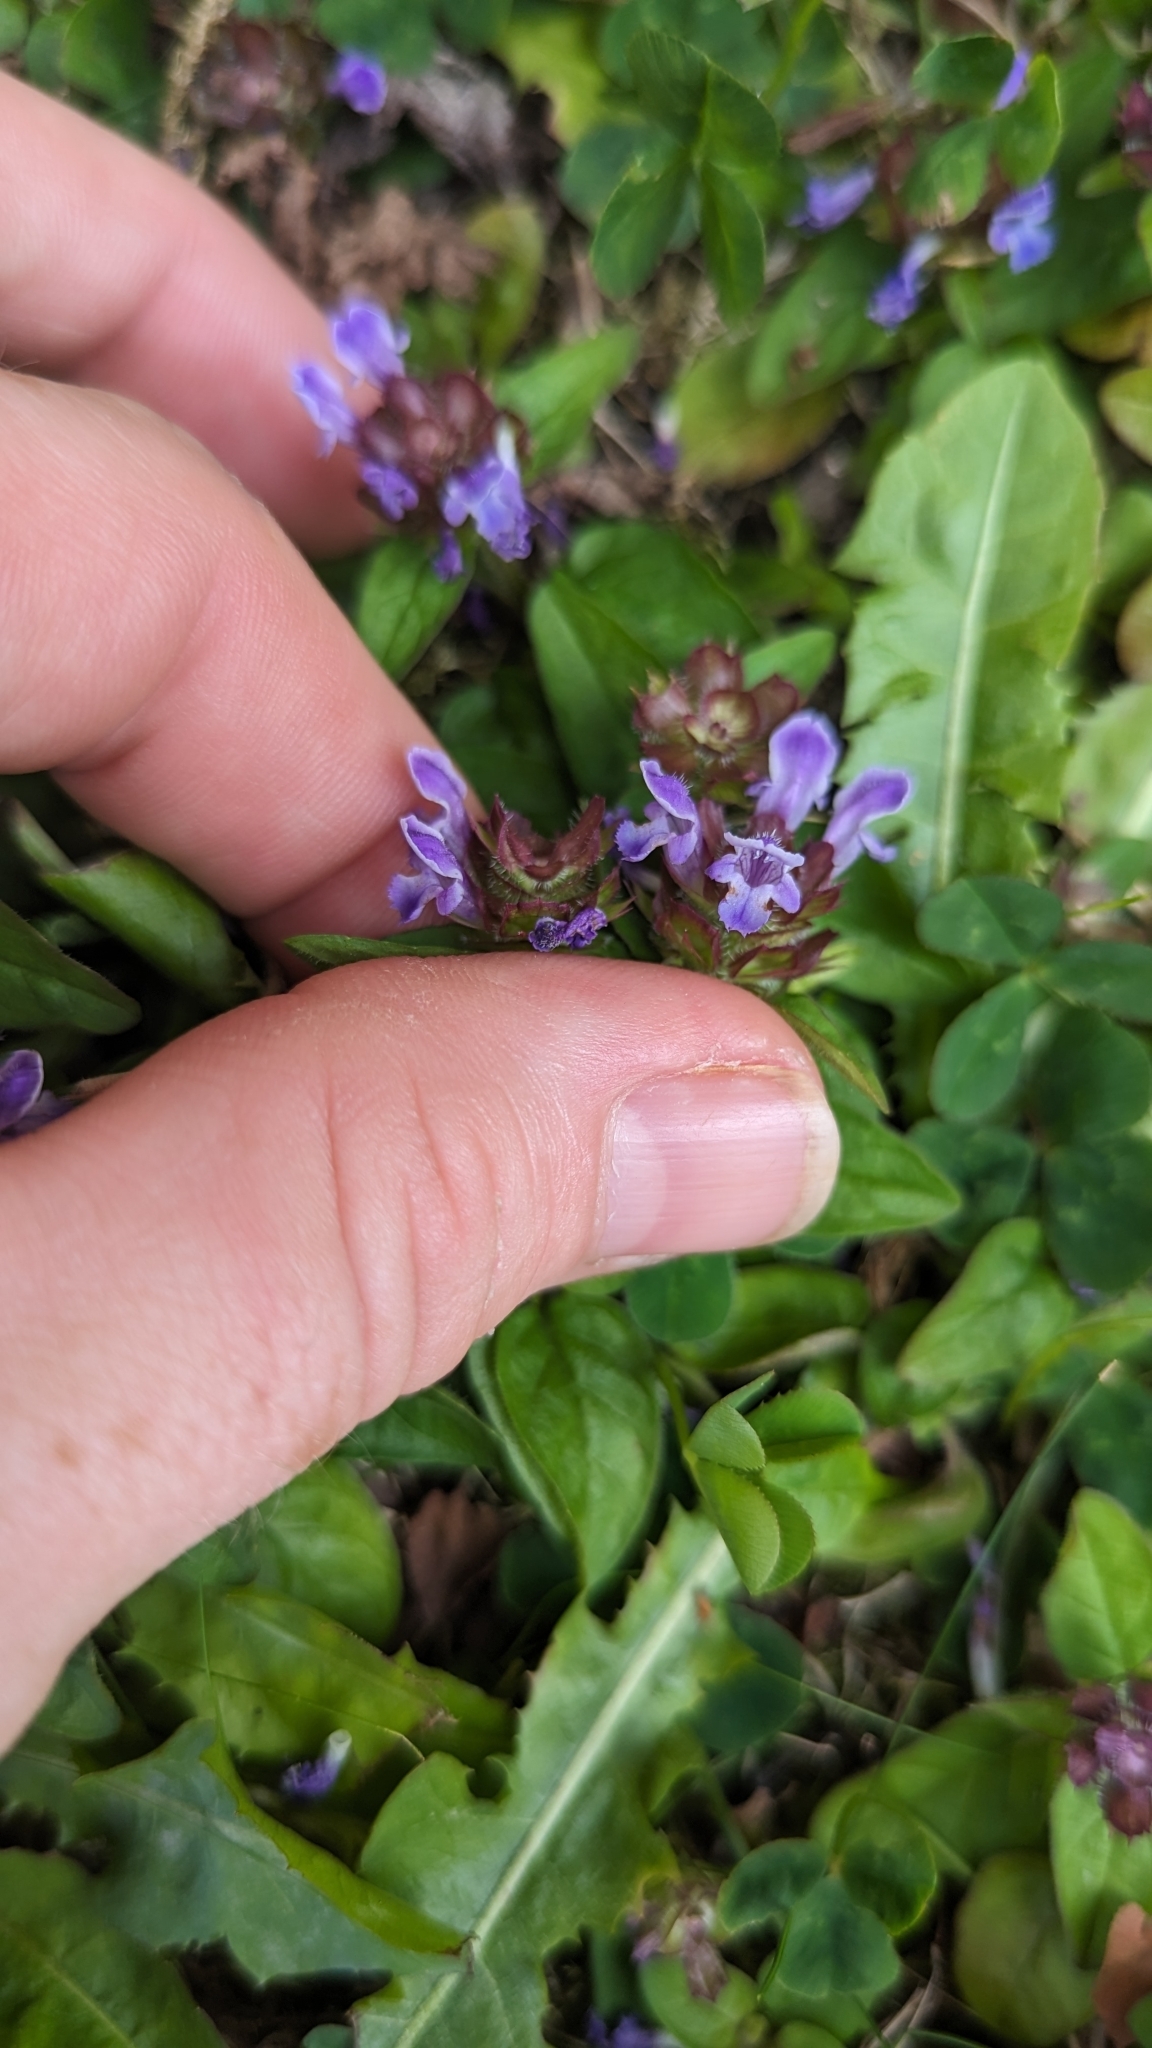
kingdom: Plantae
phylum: Tracheophyta
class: Magnoliopsida
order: Lamiales
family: Lamiaceae
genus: Prunella
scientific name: Prunella vulgaris
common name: Heal-all
